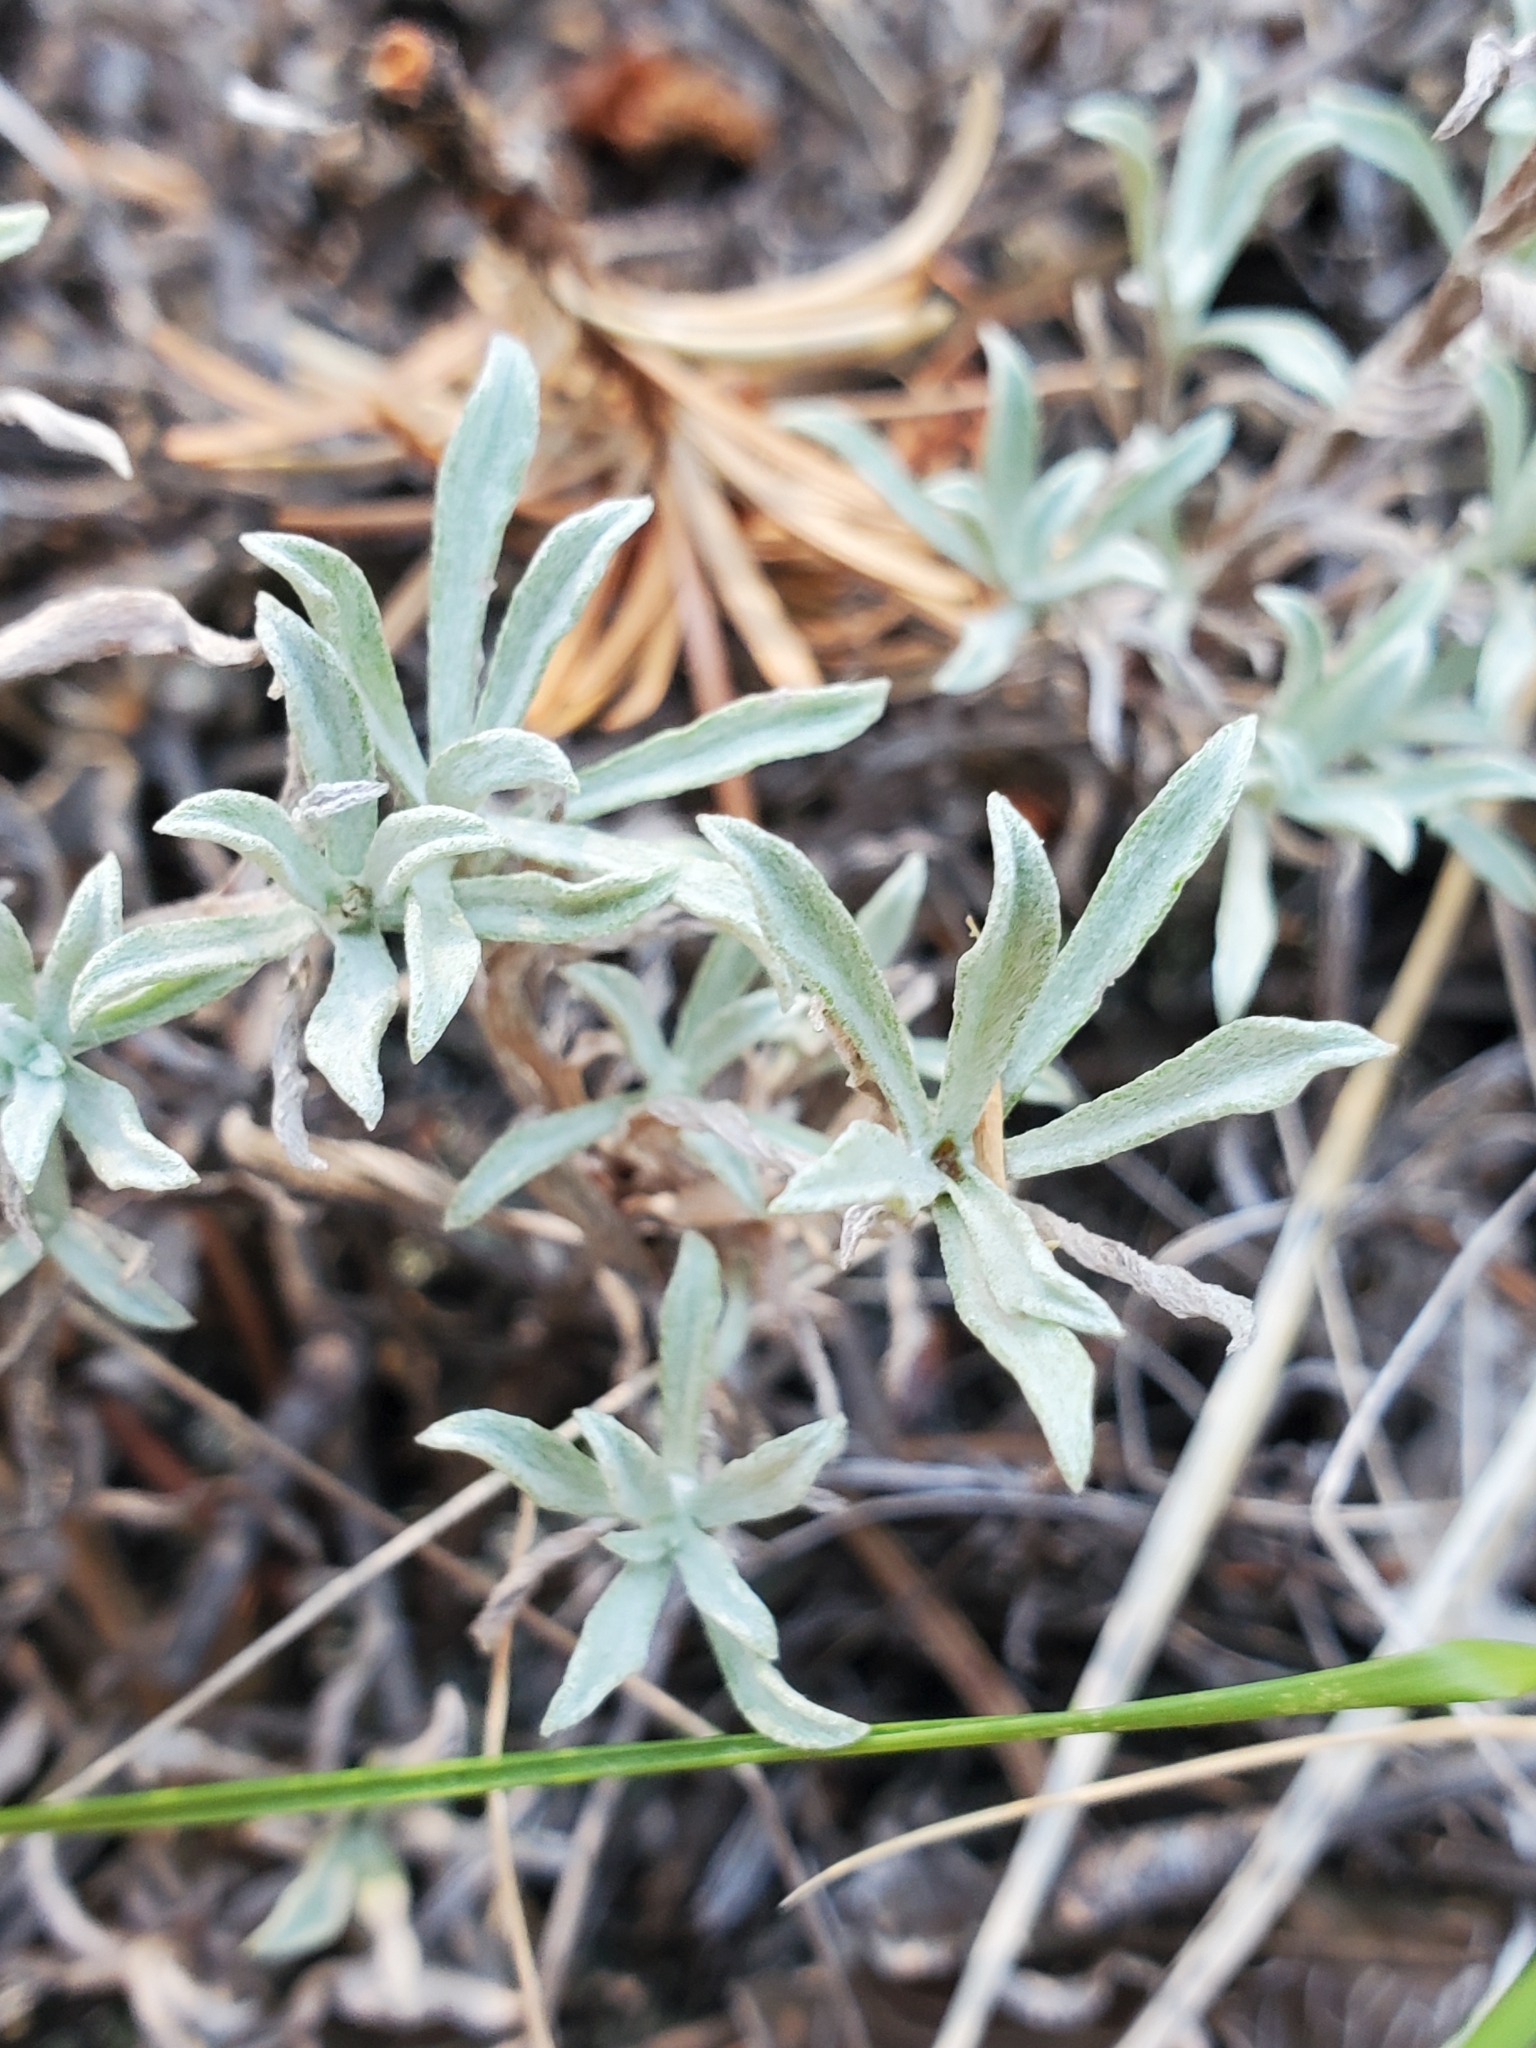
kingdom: Plantae
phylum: Tracheophyta
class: Magnoliopsida
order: Asterales
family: Asteraceae
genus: Antennaria
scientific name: Antennaria umbrinella
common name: Brown pussytoes
